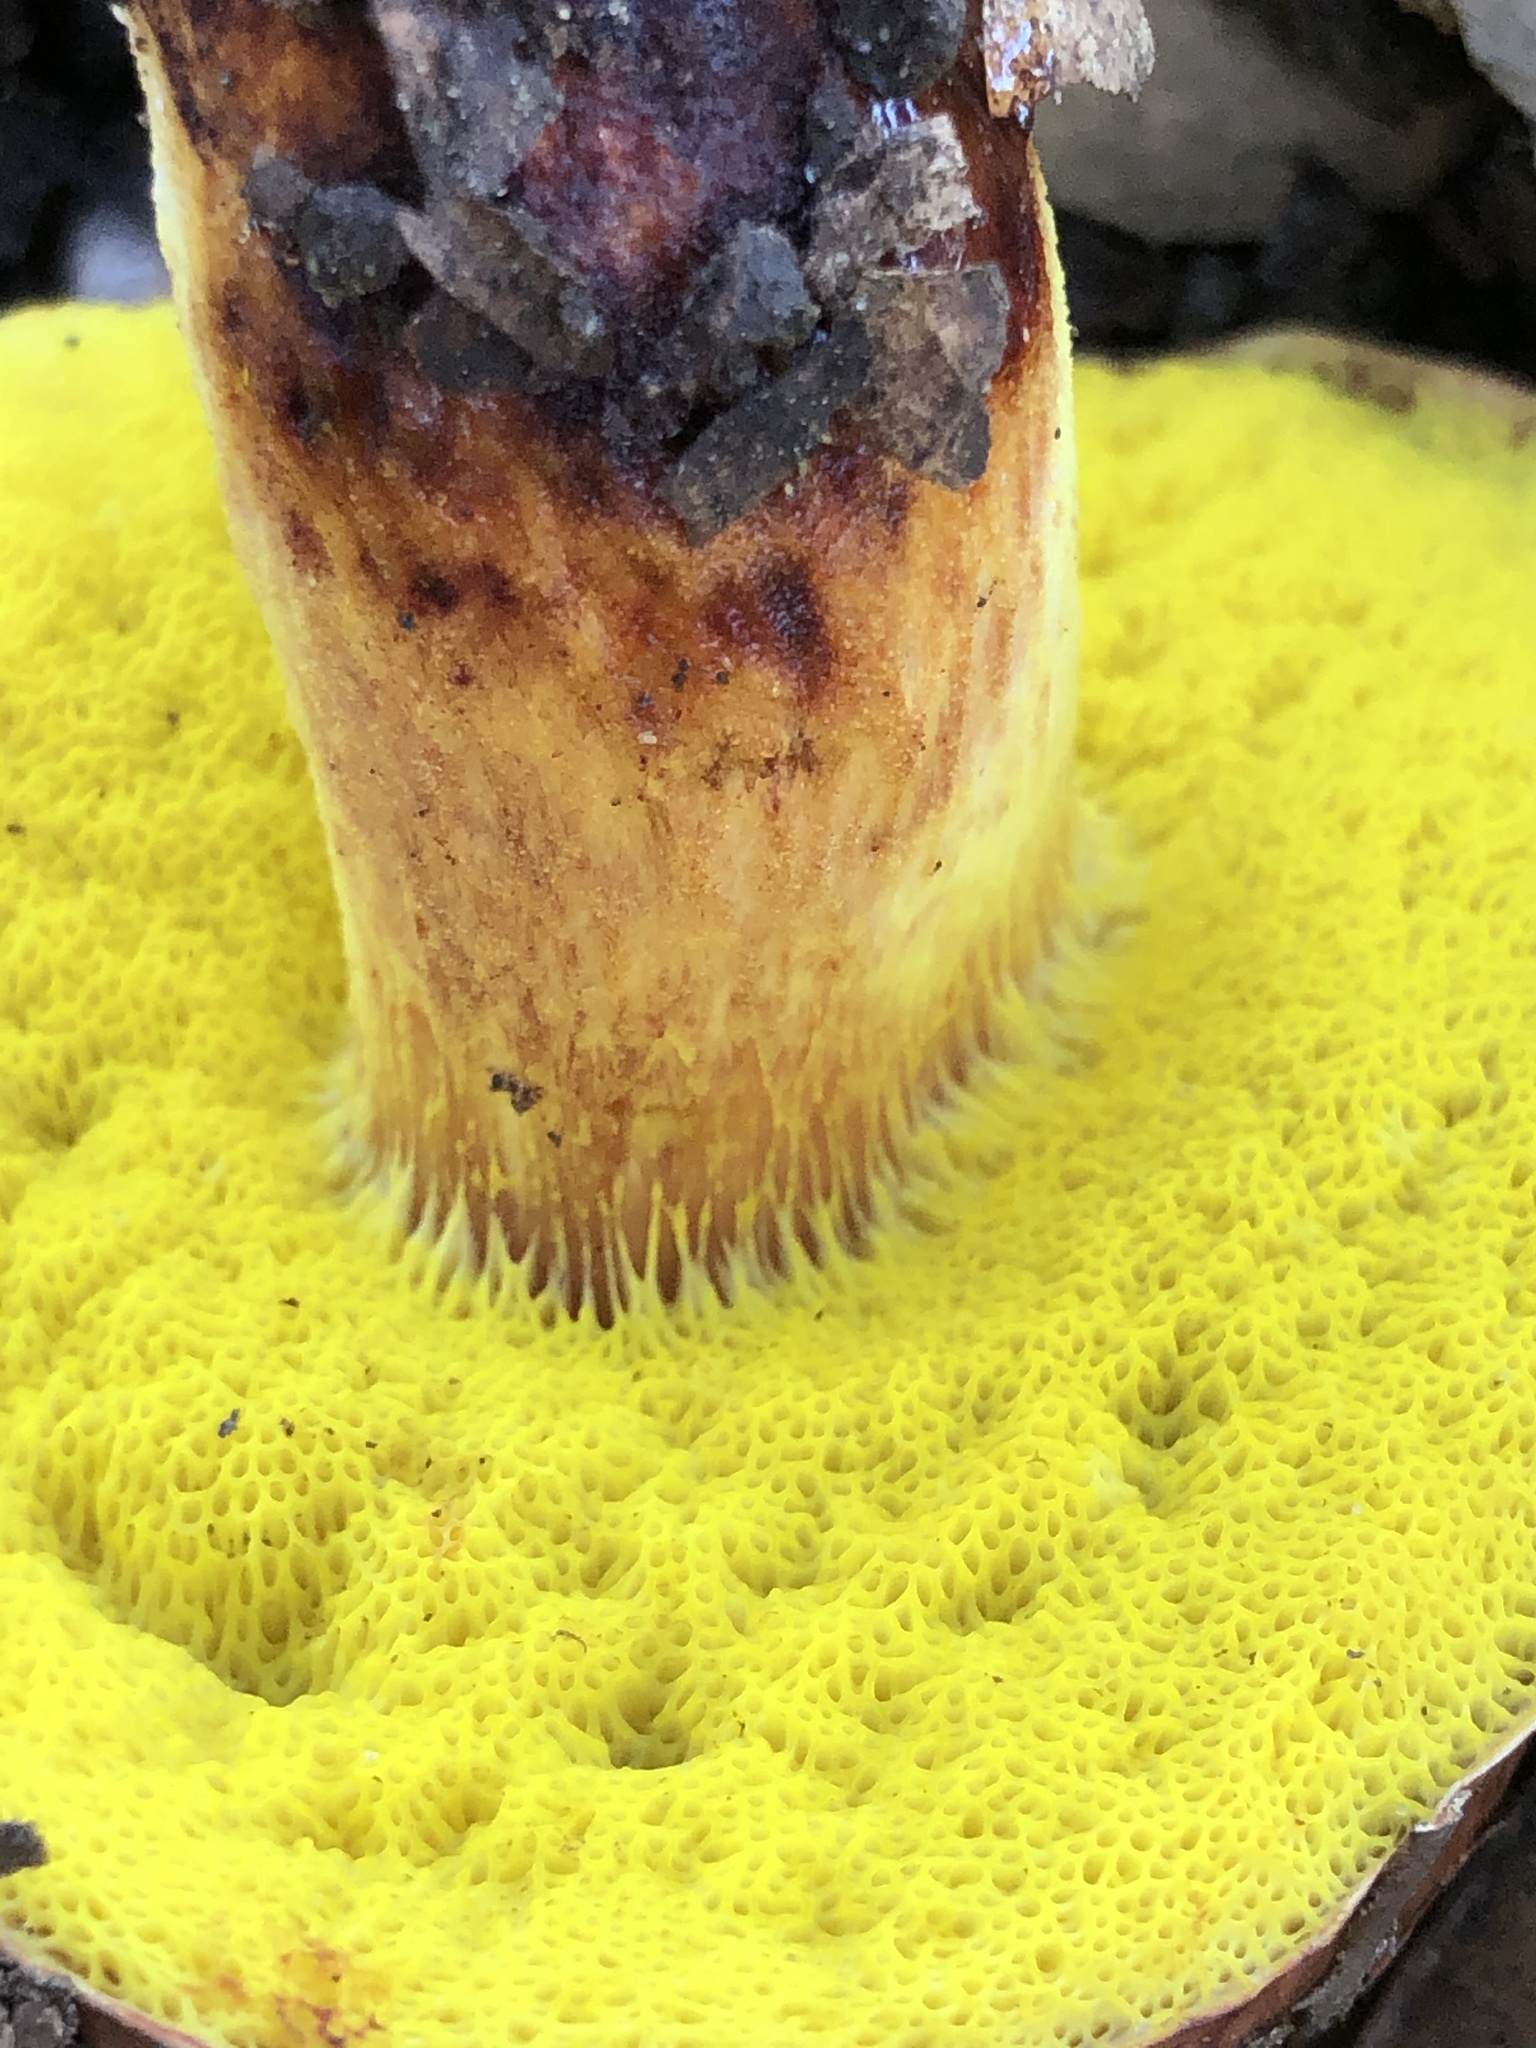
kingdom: Fungi
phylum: Basidiomycota
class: Agaricomycetes
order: Boletales
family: Boletaceae
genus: Aureoboletus
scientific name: Aureoboletus flaviporus
